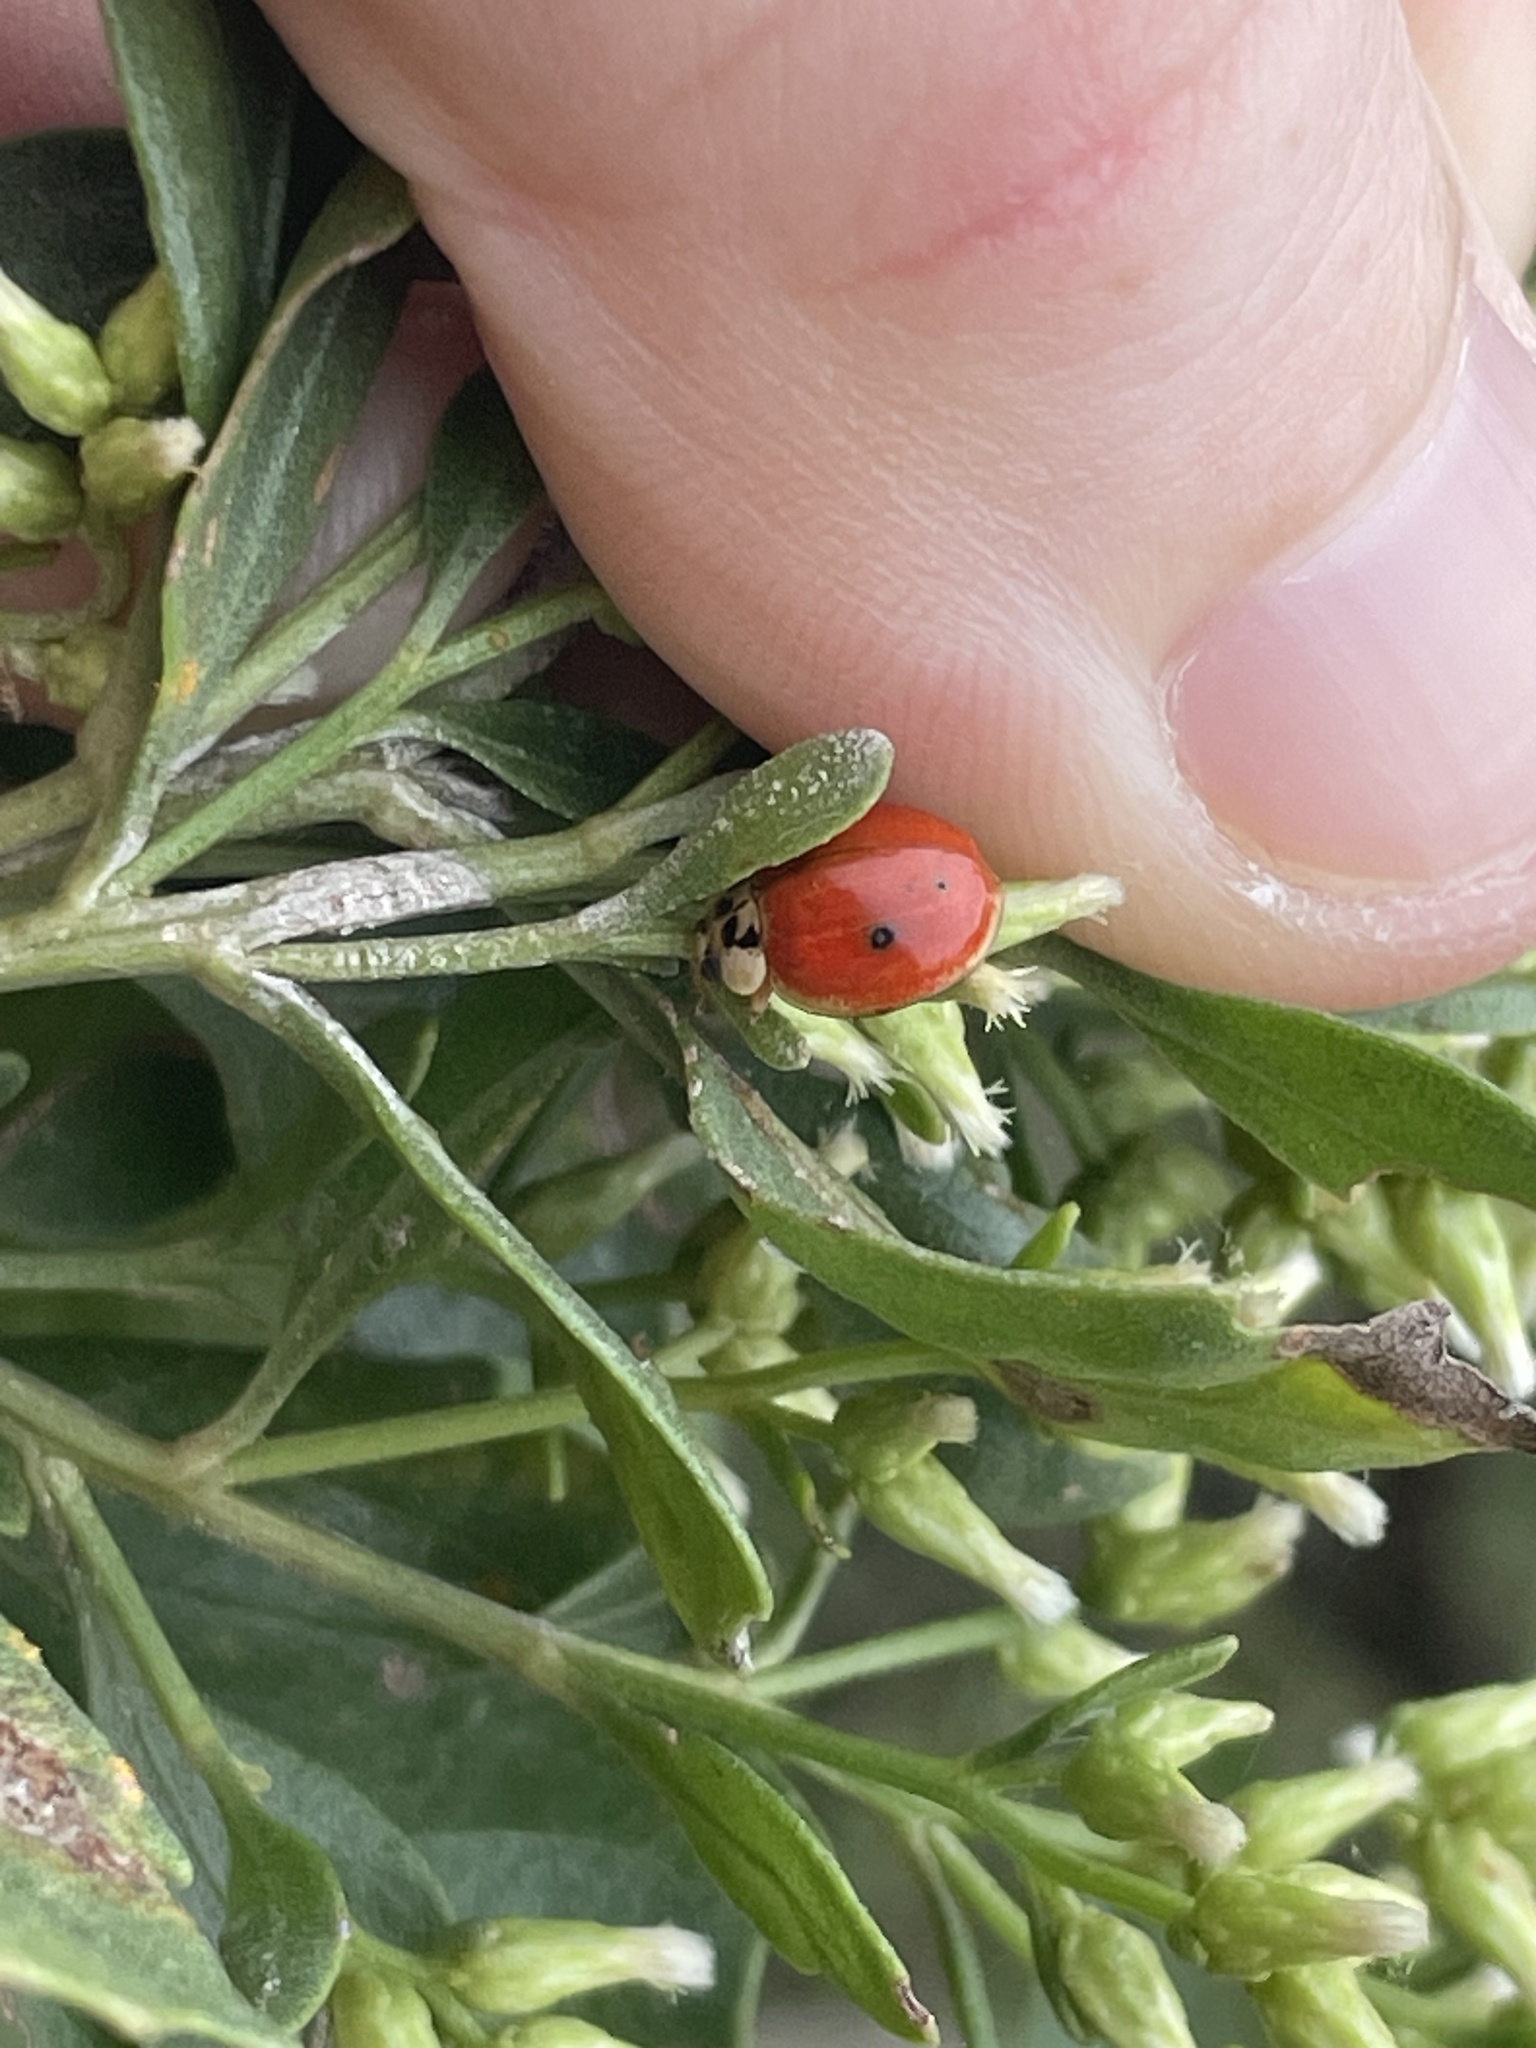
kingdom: Animalia
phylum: Arthropoda
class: Insecta
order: Coleoptera
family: Coccinellidae
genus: Harmonia
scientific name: Harmonia axyridis
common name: Harlequin ladybird
